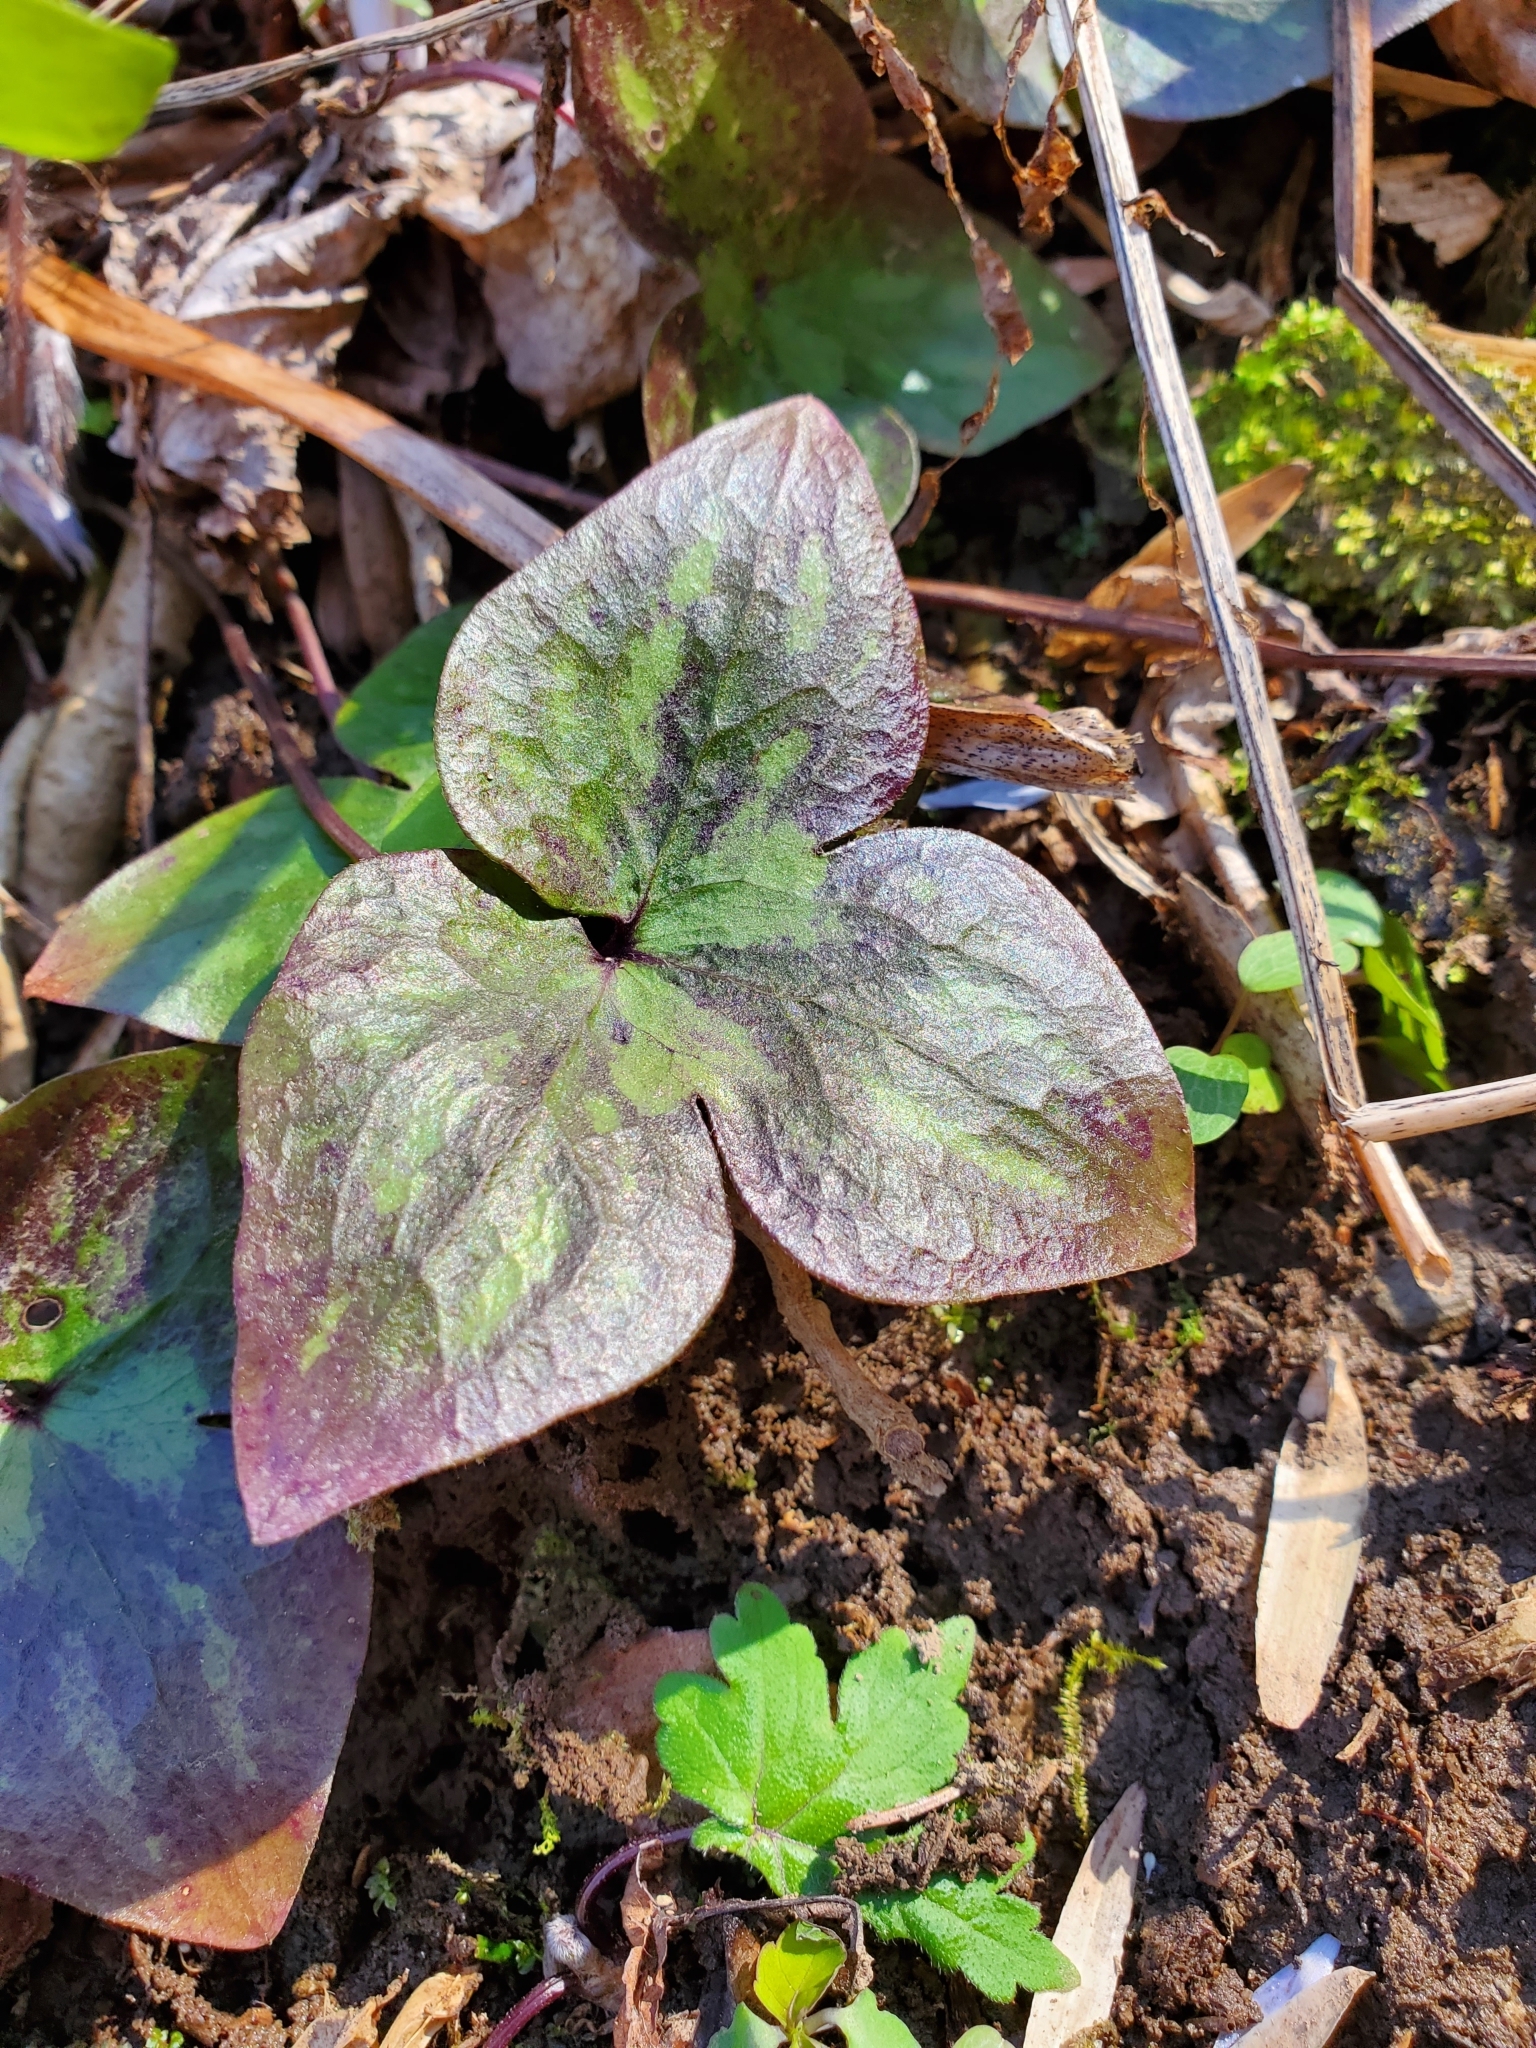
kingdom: Plantae
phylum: Tracheophyta
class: Magnoliopsida
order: Ranunculales
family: Ranunculaceae
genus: Hepatica
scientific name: Hepatica acutiloba
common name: Sharp-lobed hepatica
